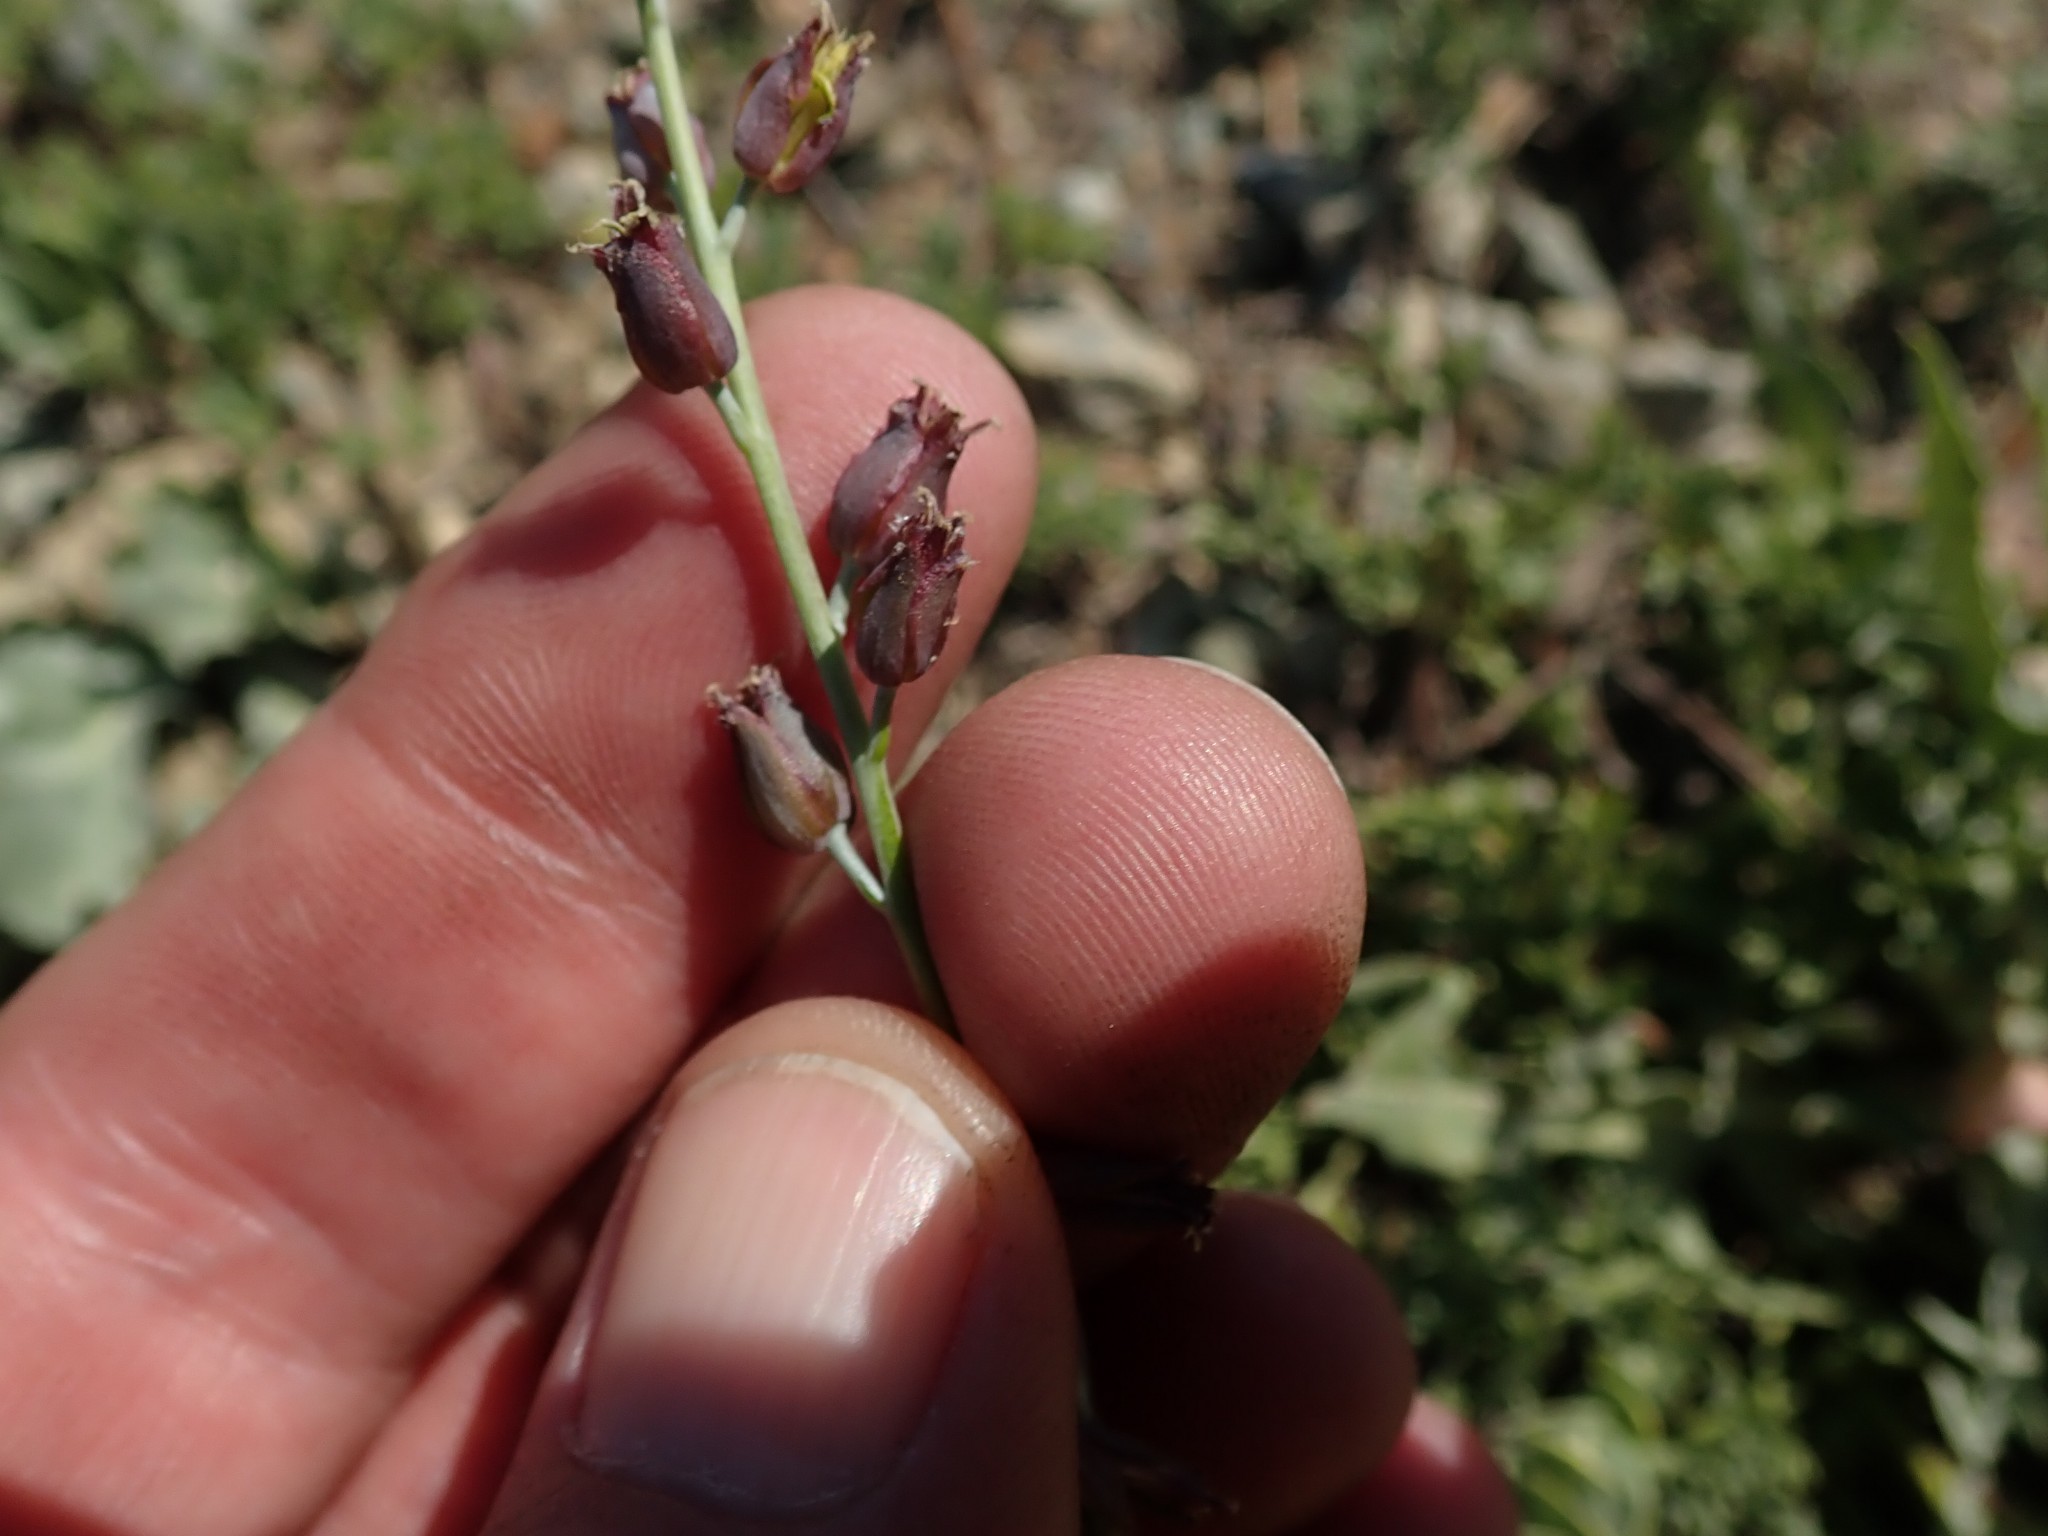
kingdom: Plantae
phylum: Tracheophyta
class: Magnoliopsida
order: Brassicales
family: Brassicaceae
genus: Streptanthus
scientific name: Streptanthus barbatus
